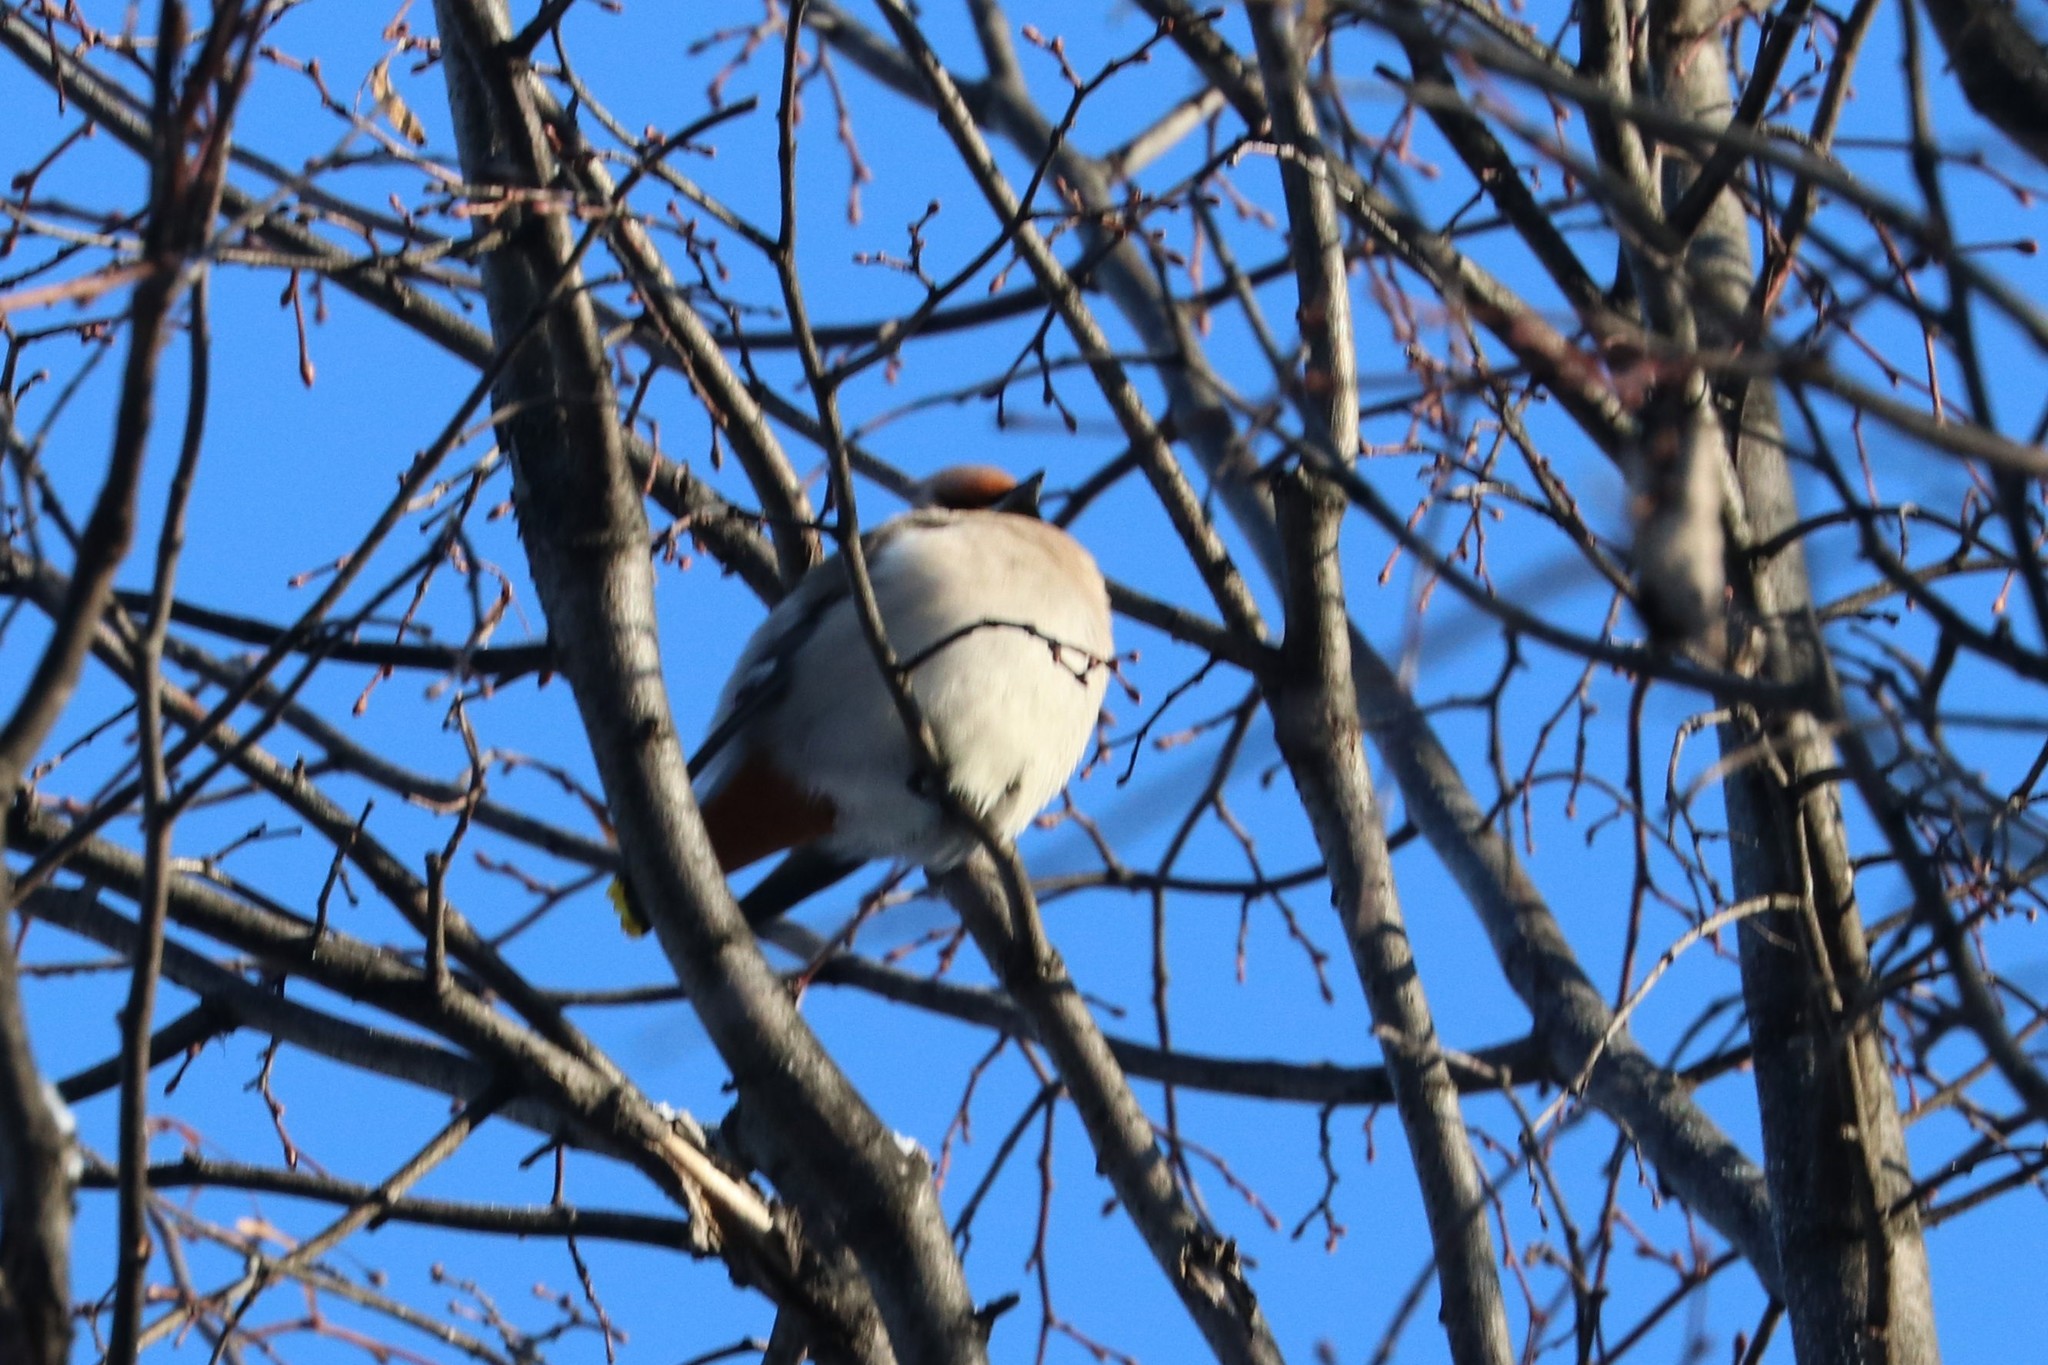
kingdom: Animalia
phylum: Chordata
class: Aves
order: Passeriformes
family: Bombycillidae
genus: Bombycilla
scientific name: Bombycilla garrulus
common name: Bohemian waxwing
